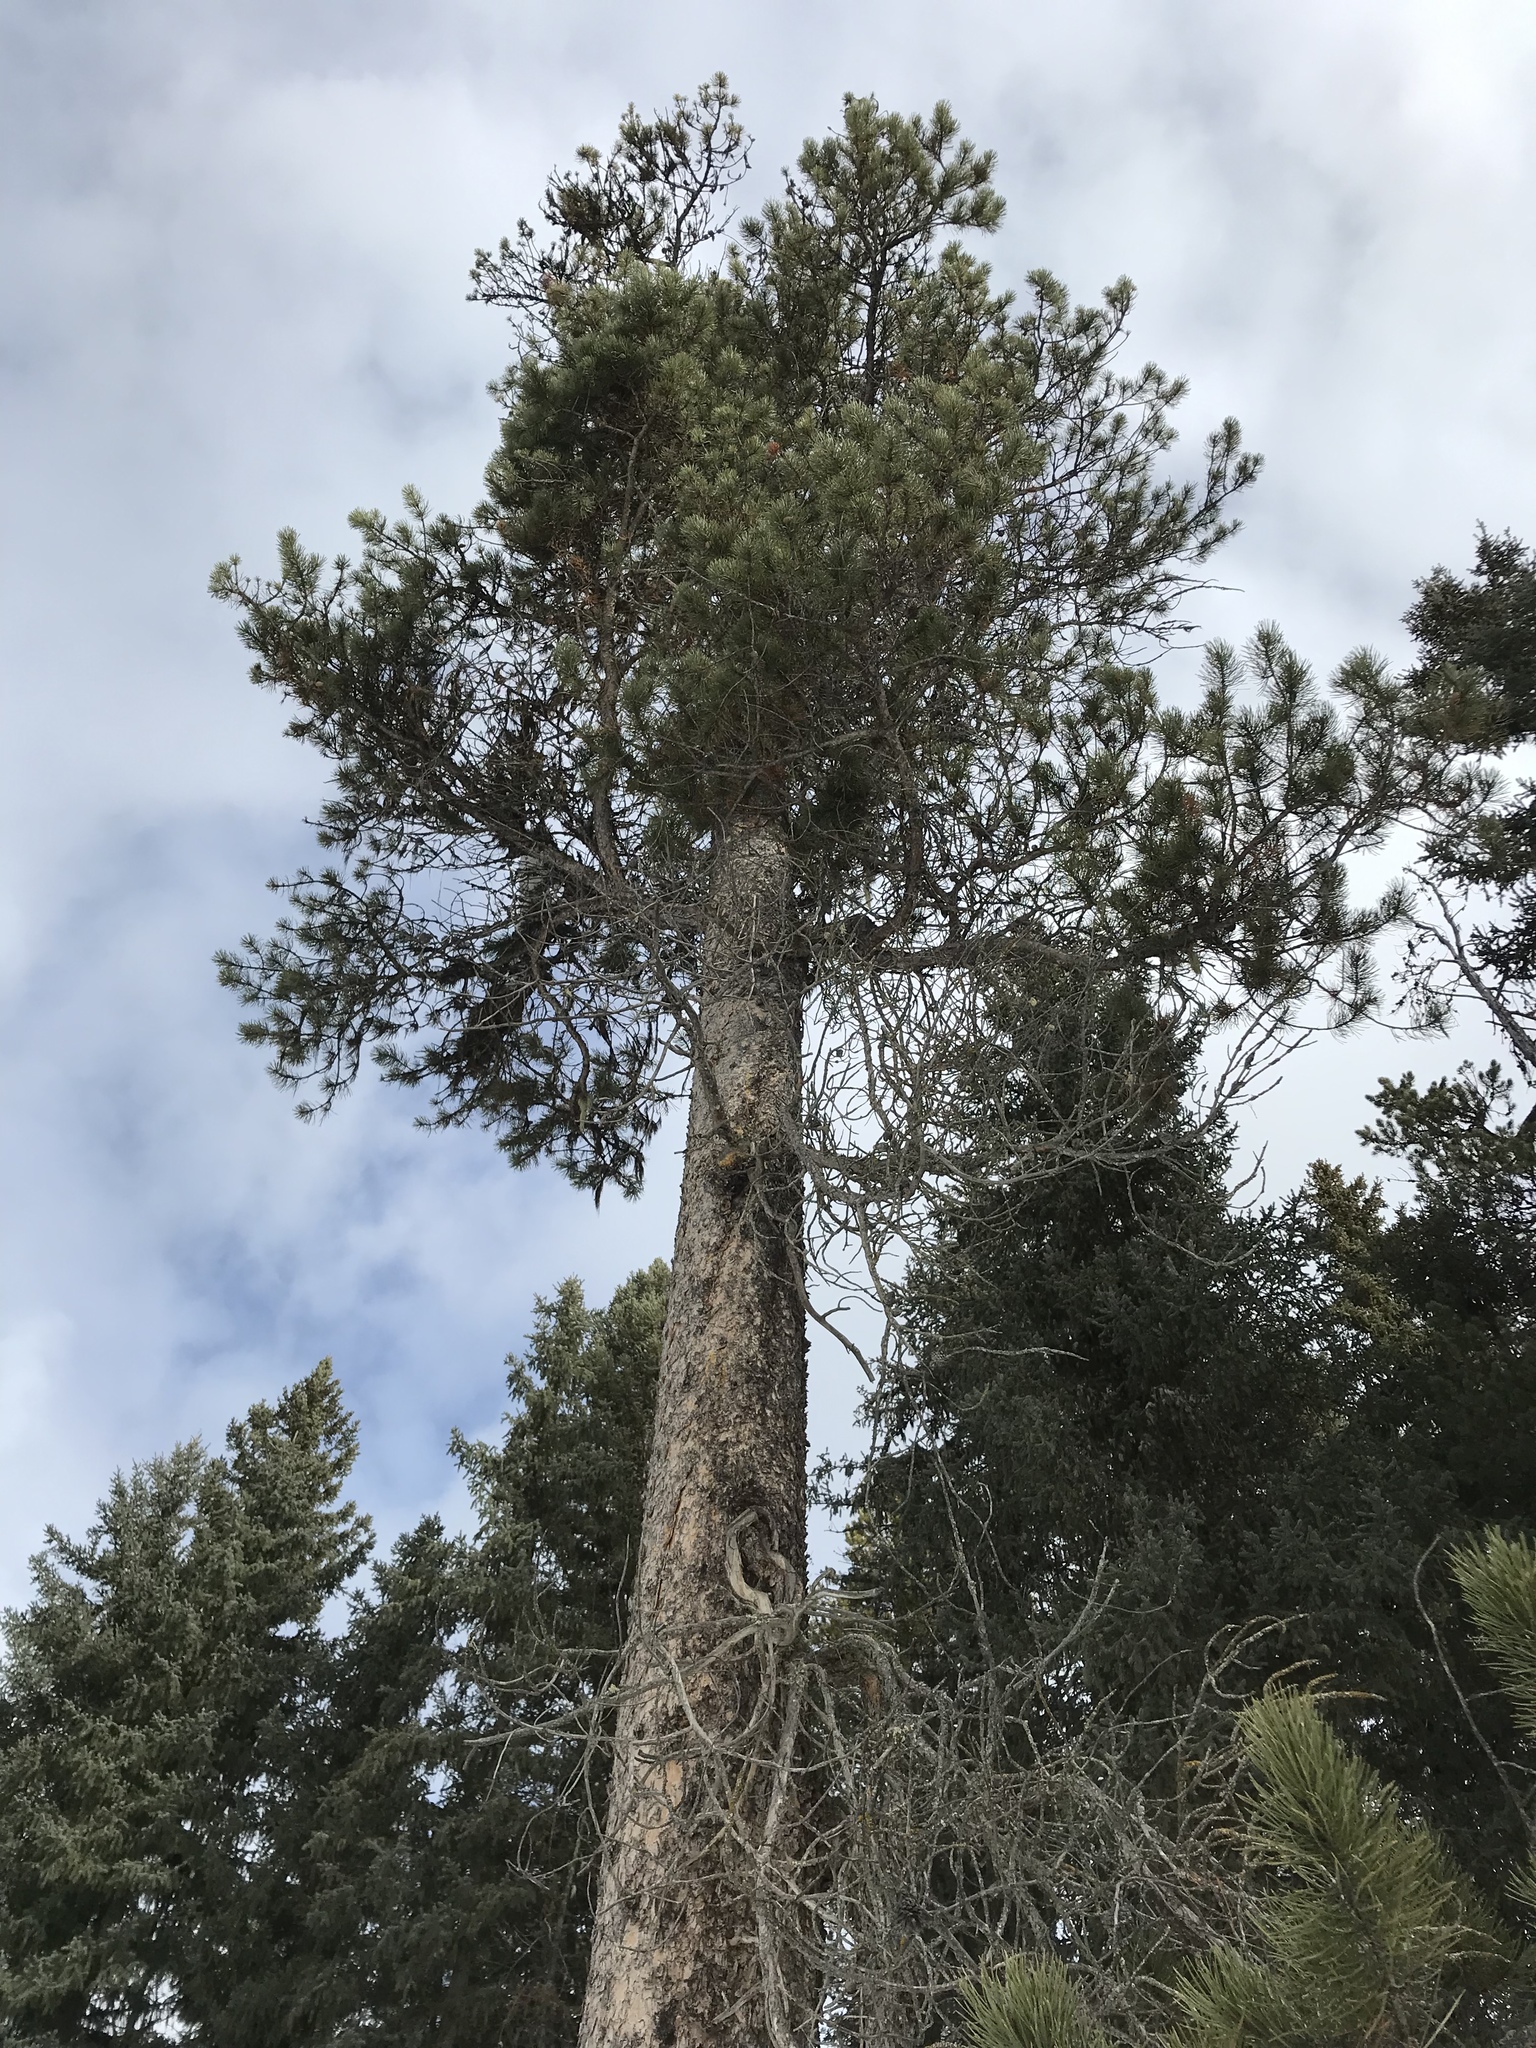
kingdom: Plantae
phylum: Tracheophyta
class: Pinopsida
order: Pinales
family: Pinaceae
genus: Pinus
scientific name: Pinus contorta
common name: Lodgepole pine
